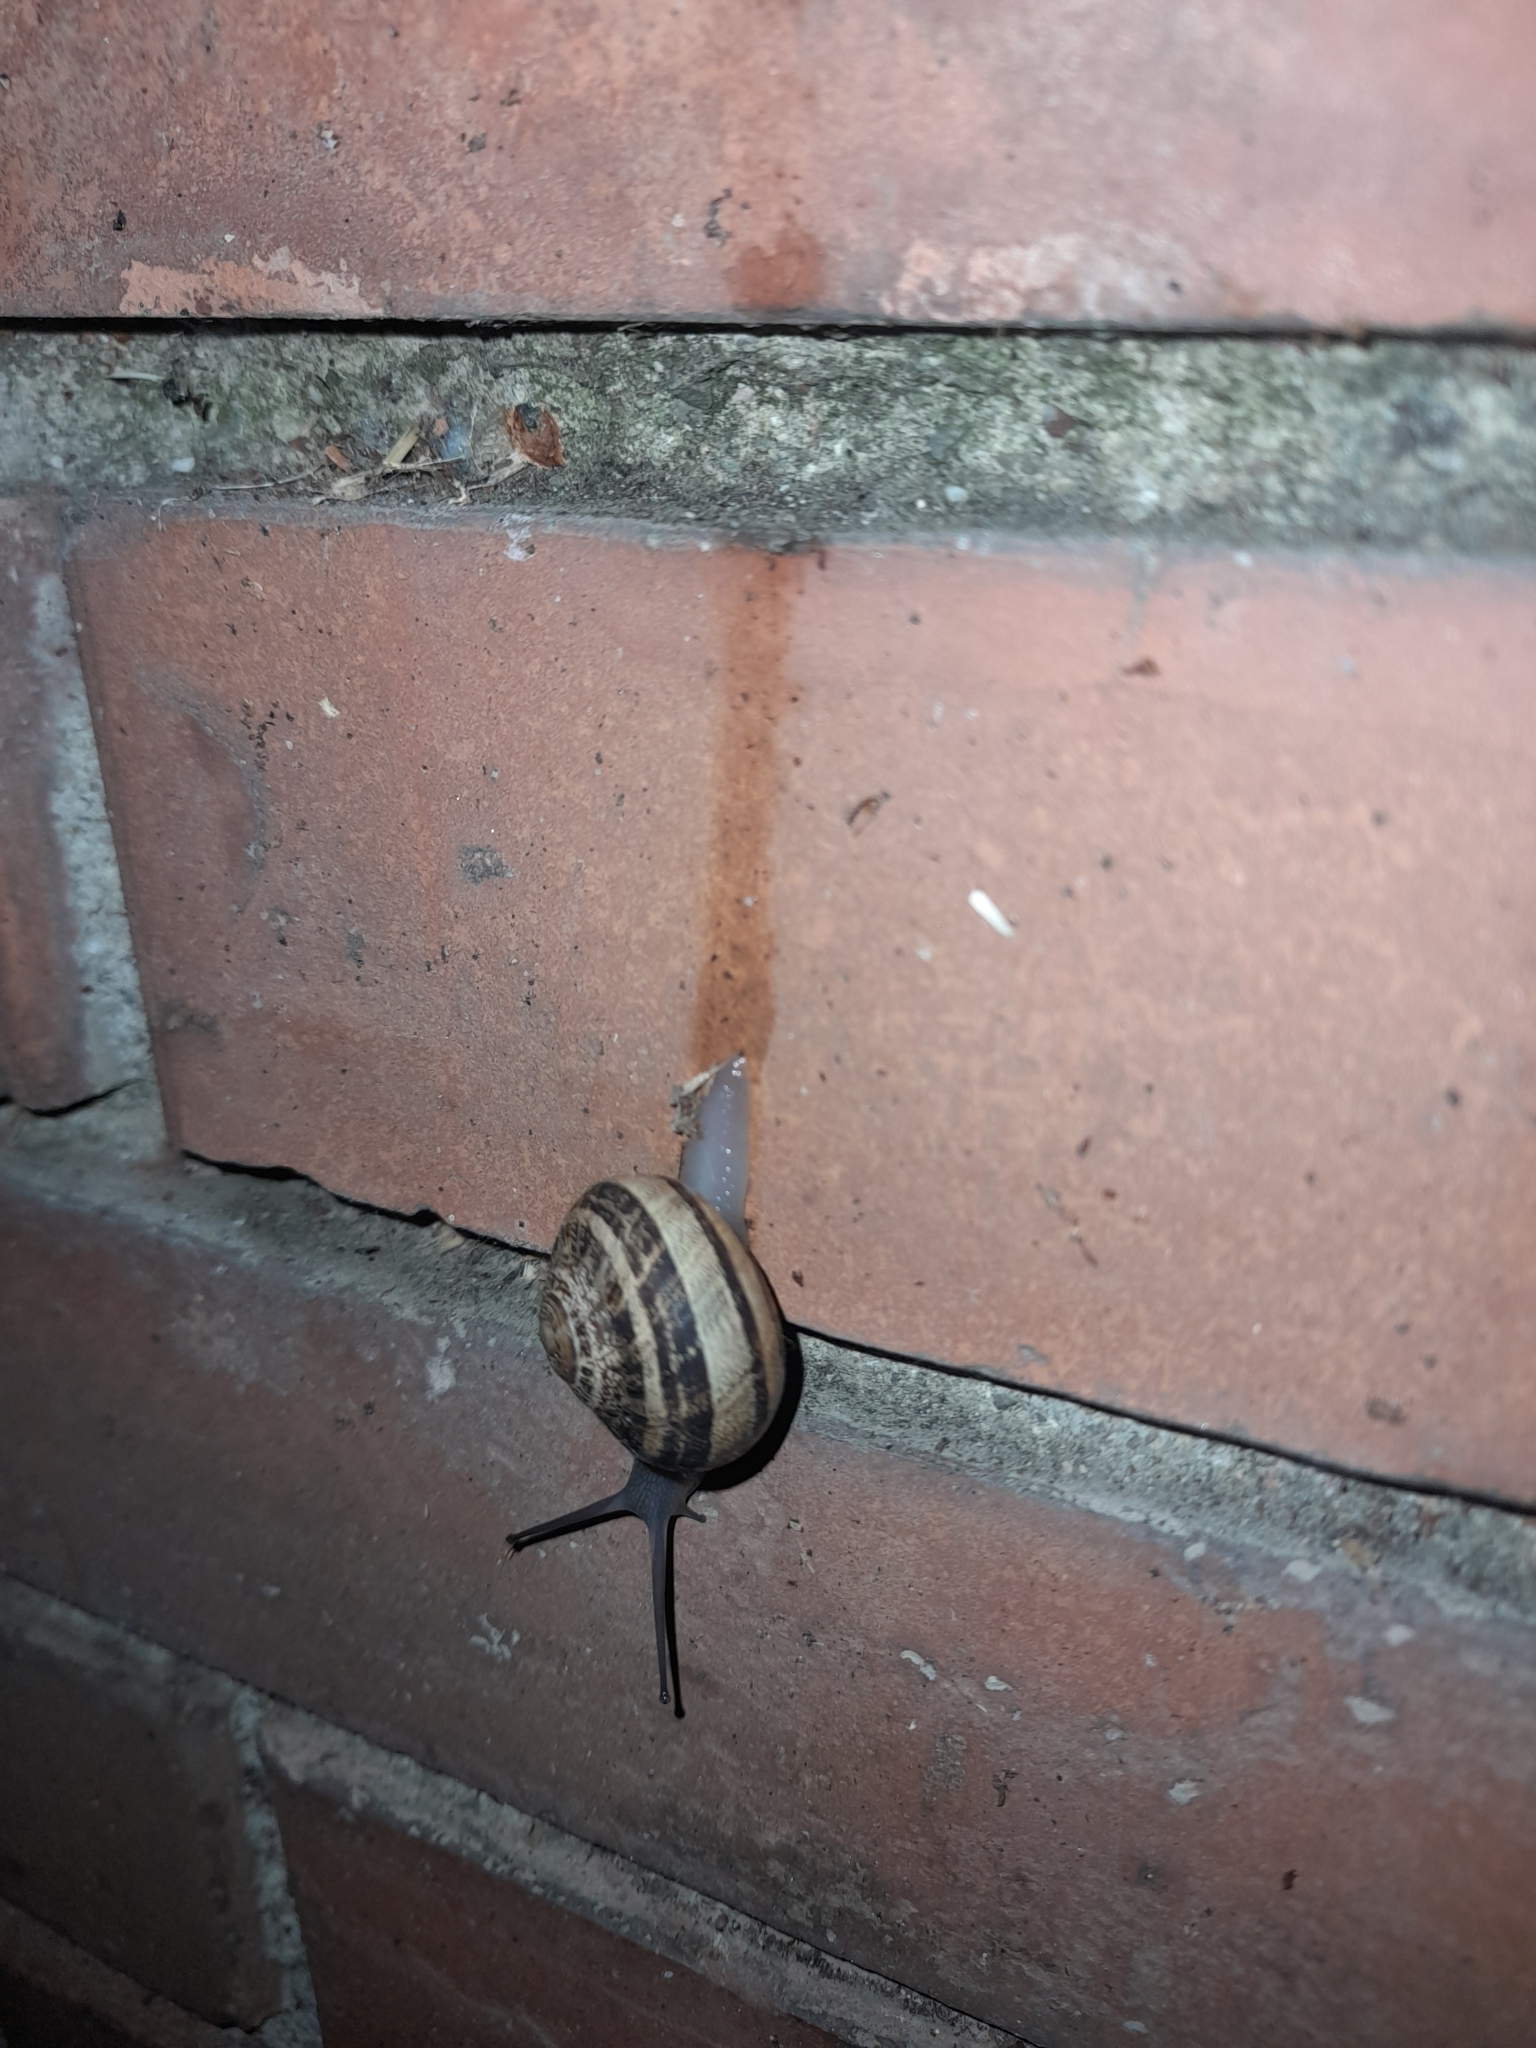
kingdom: Animalia
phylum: Mollusca
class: Gastropoda
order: Stylommatophora
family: Helicidae
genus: Eobania
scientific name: Eobania vermiculata
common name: Chocolateband snail
